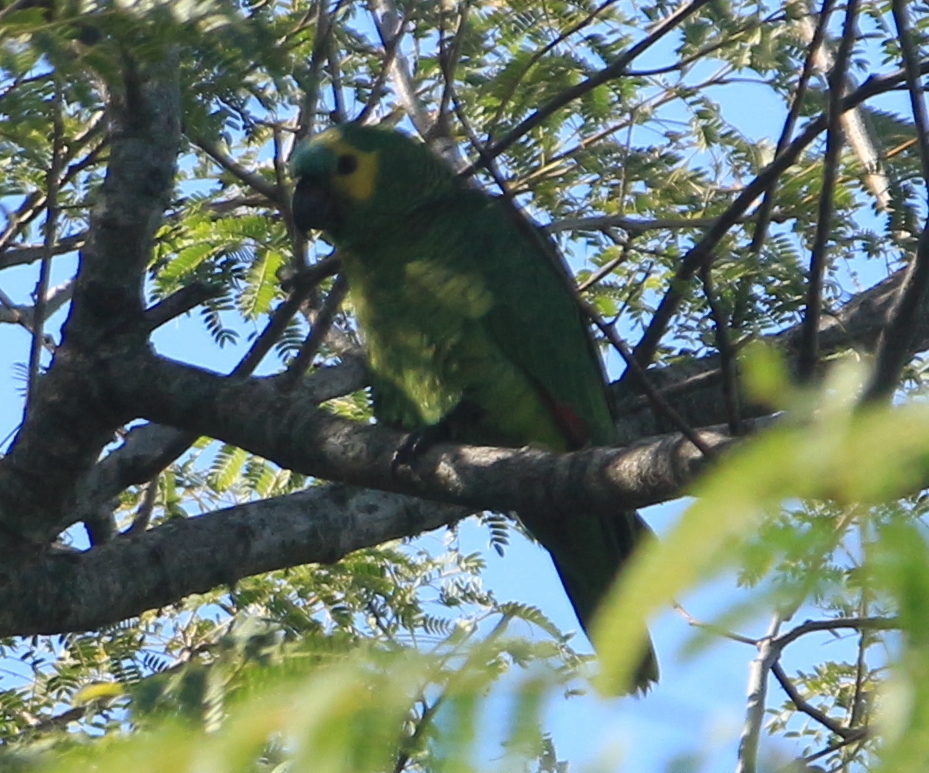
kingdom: Animalia
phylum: Chordata
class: Aves
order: Psittaciformes
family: Psittacidae
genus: Amazona
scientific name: Amazona aestiva
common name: Turquoise-fronted amazon
